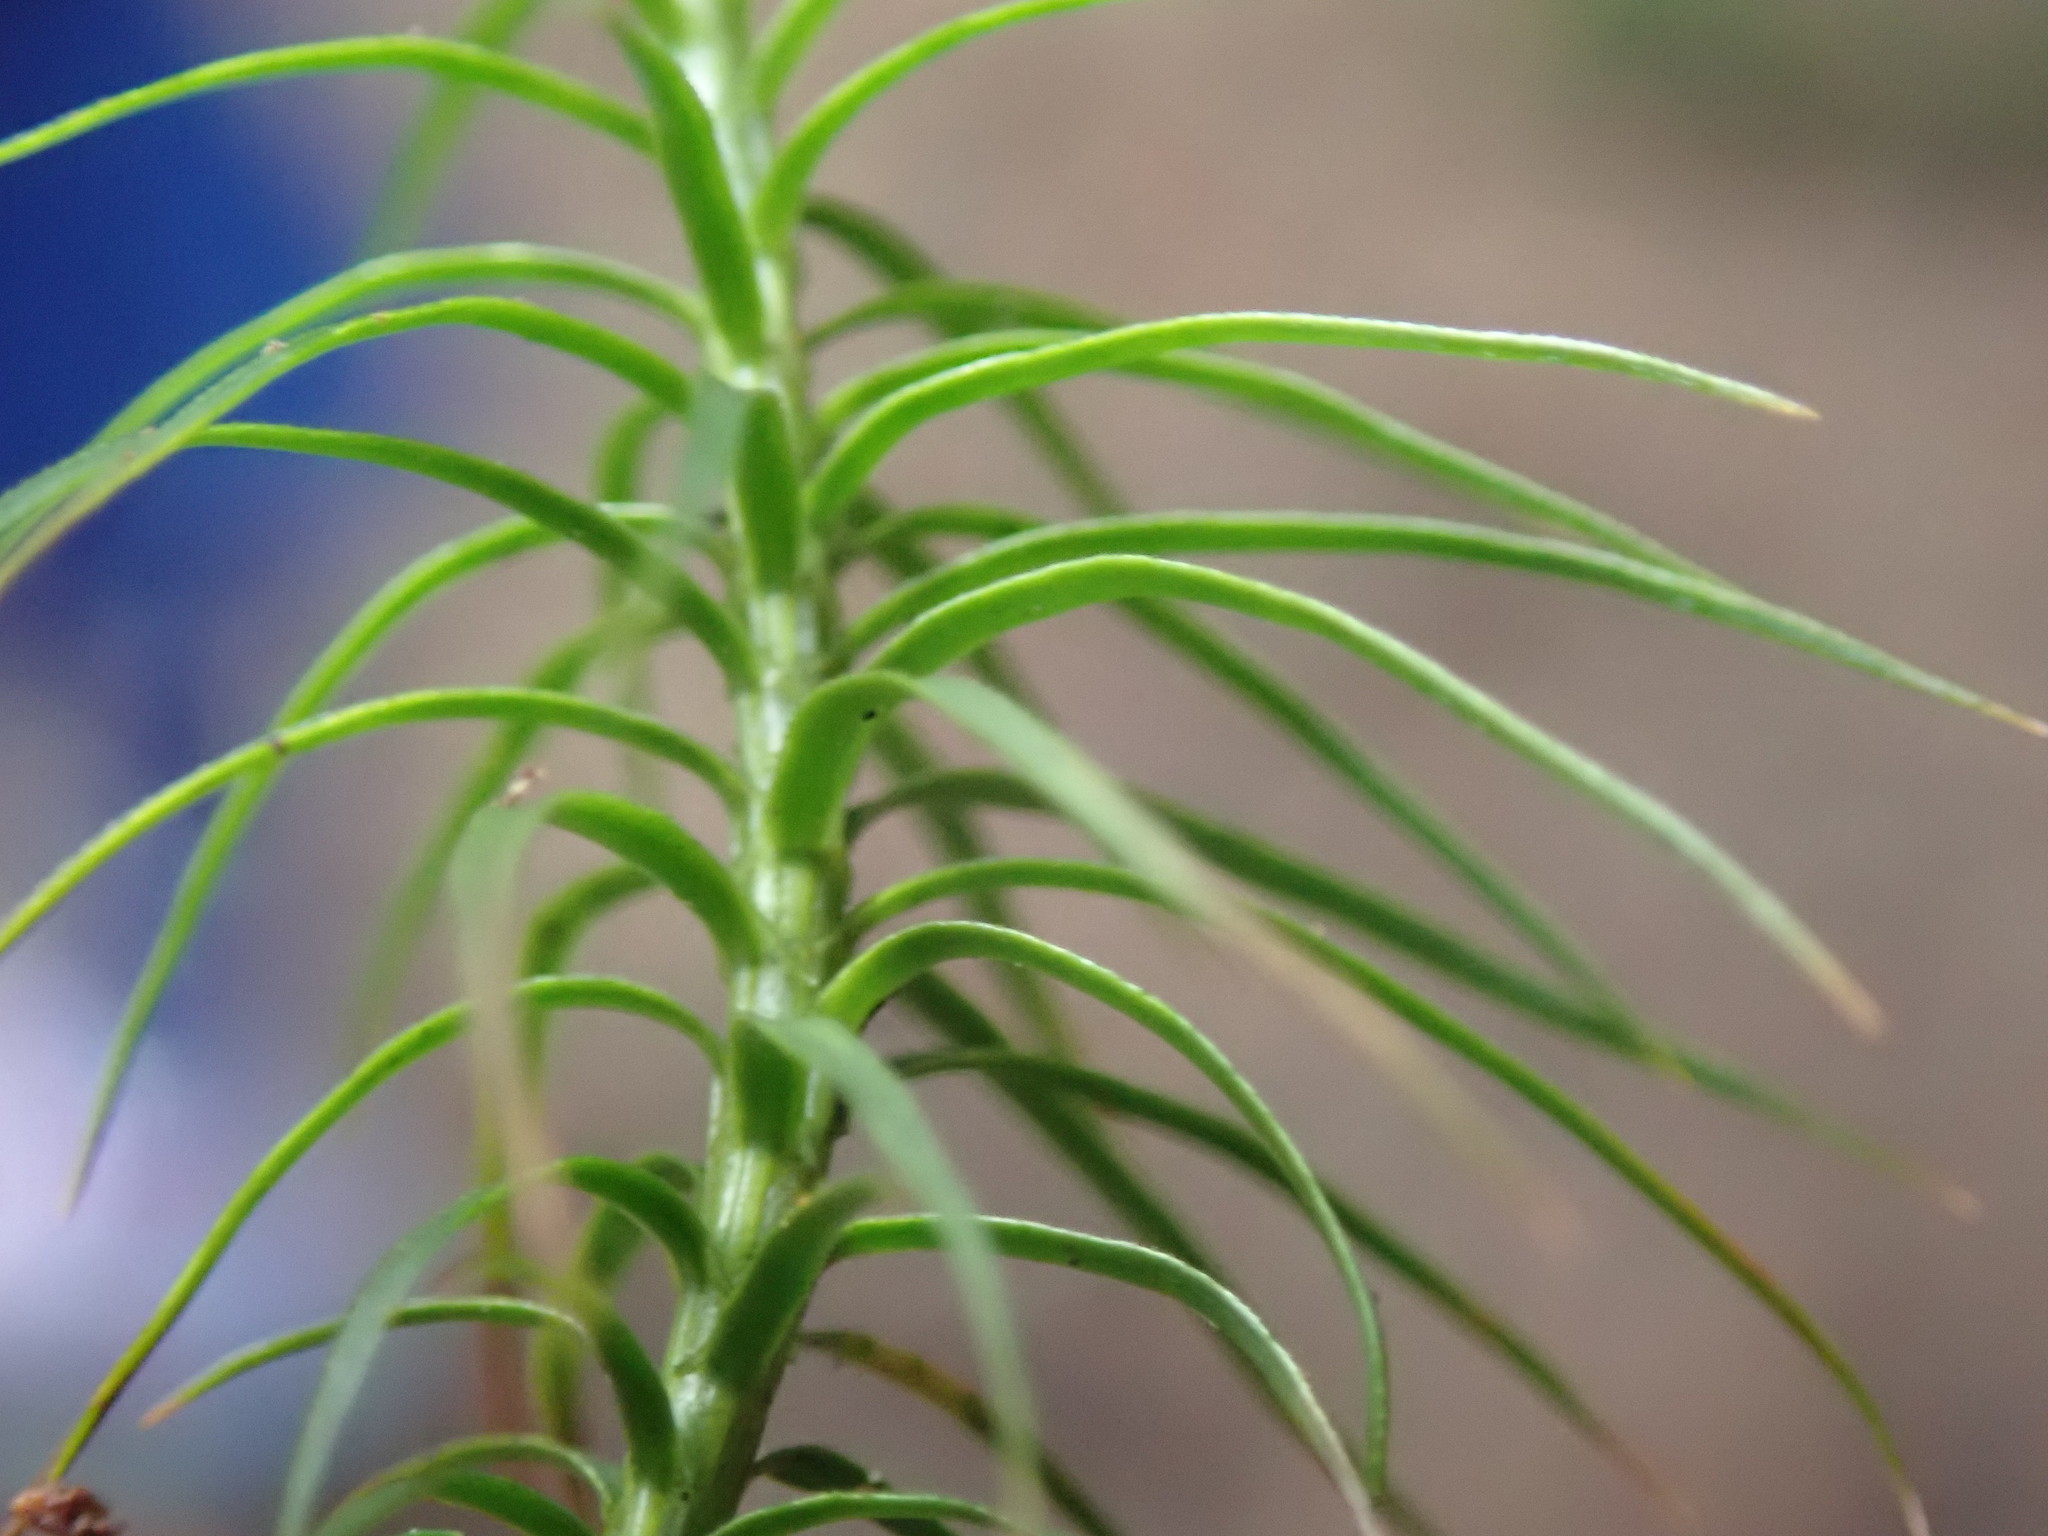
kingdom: Plantae
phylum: Bryophyta
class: Polytrichopsida
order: Polytrichales
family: Polytrichaceae
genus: Polytrichastrum
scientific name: Polytrichastrum alpinum
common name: Alpine haircap
